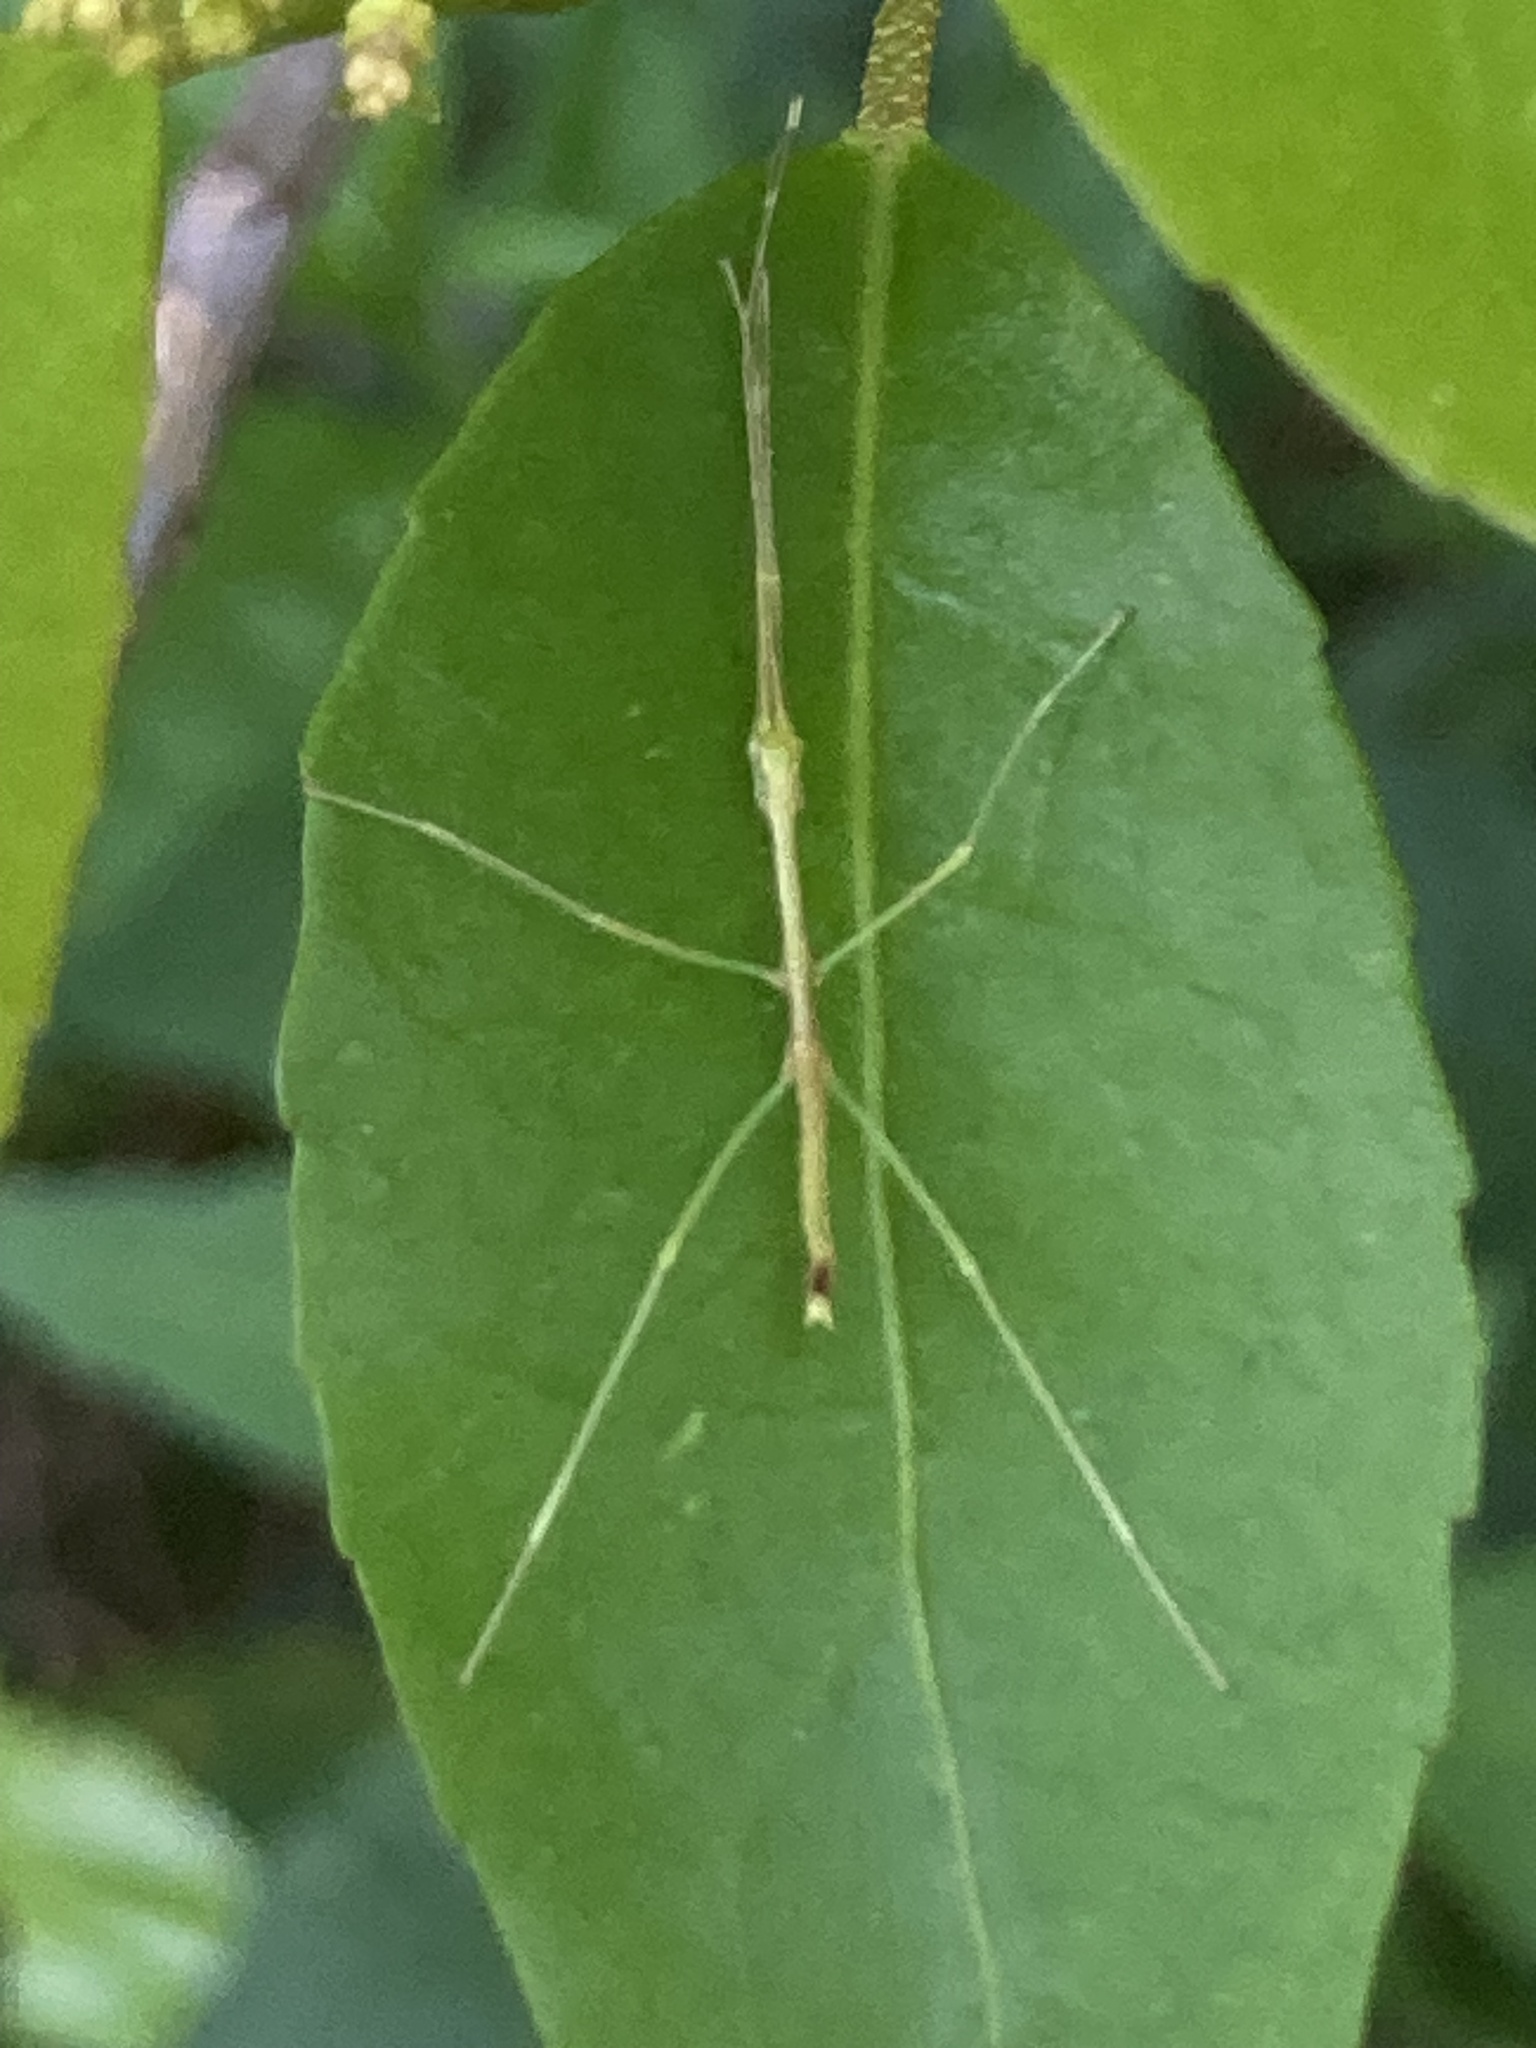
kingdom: Animalia
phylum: Arthropoda
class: Insecta
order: Phasmida
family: Lonchodidae
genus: Candovia
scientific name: Candovia strumosa
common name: Richmond river stick-insect
